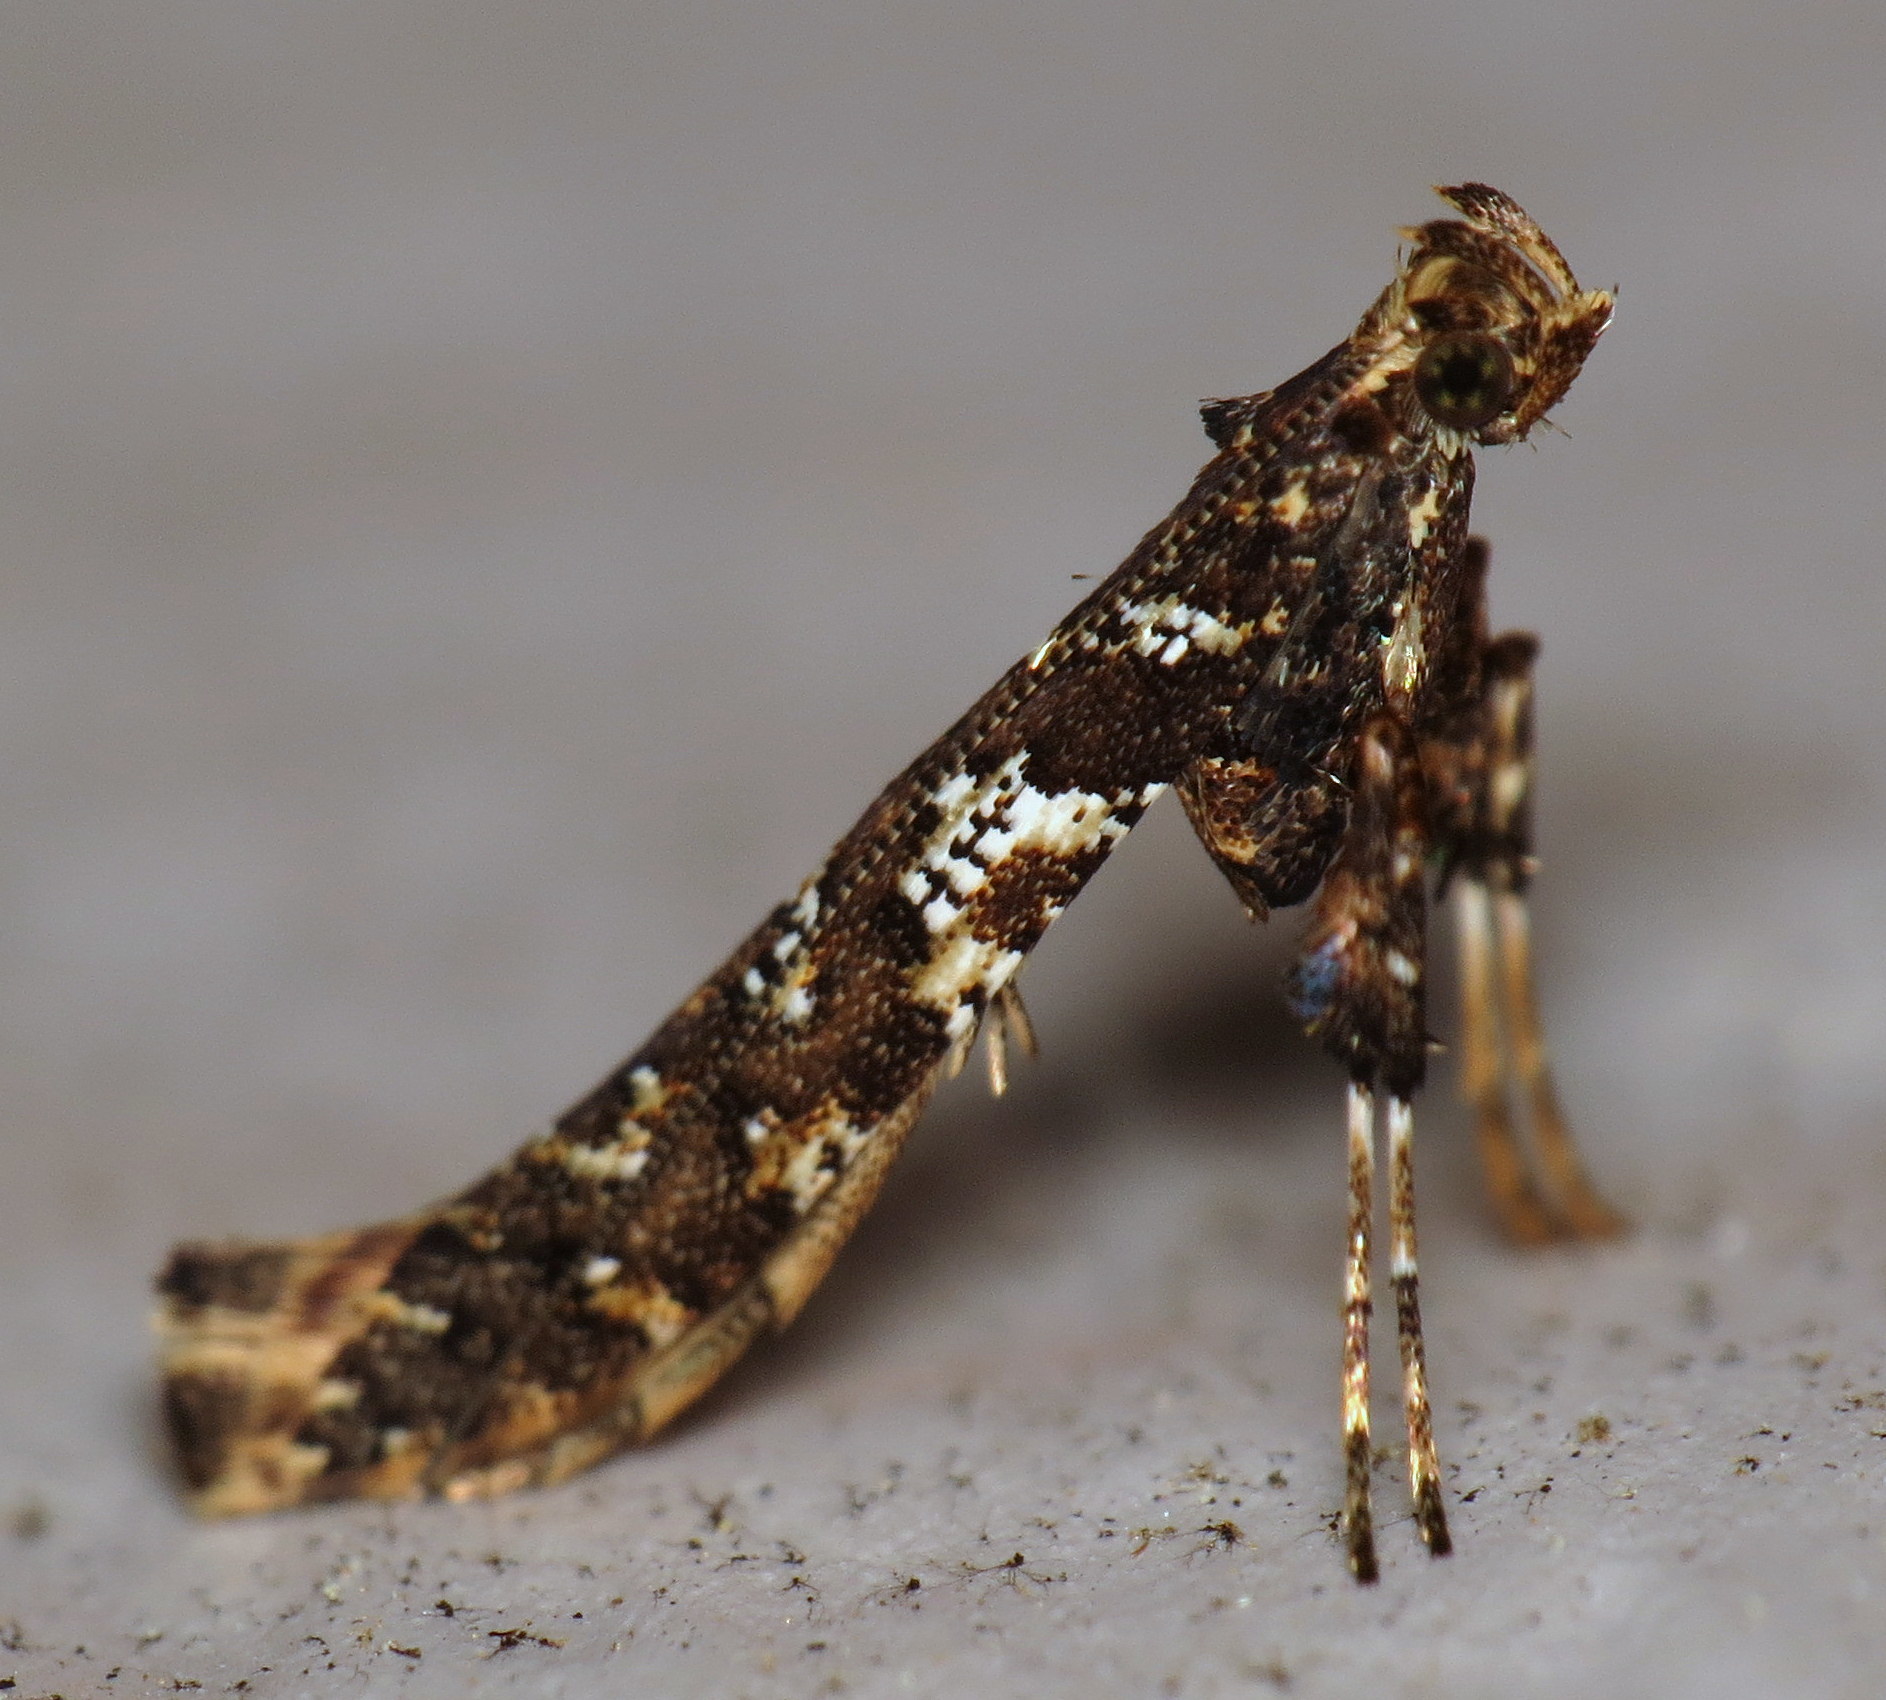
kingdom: Animalia
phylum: Arthropoda
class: Insecta
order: Lepidoptera
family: Gracillariidae
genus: Caloptilia
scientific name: Caloptilia serotinella
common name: Cherry leafroller moth
